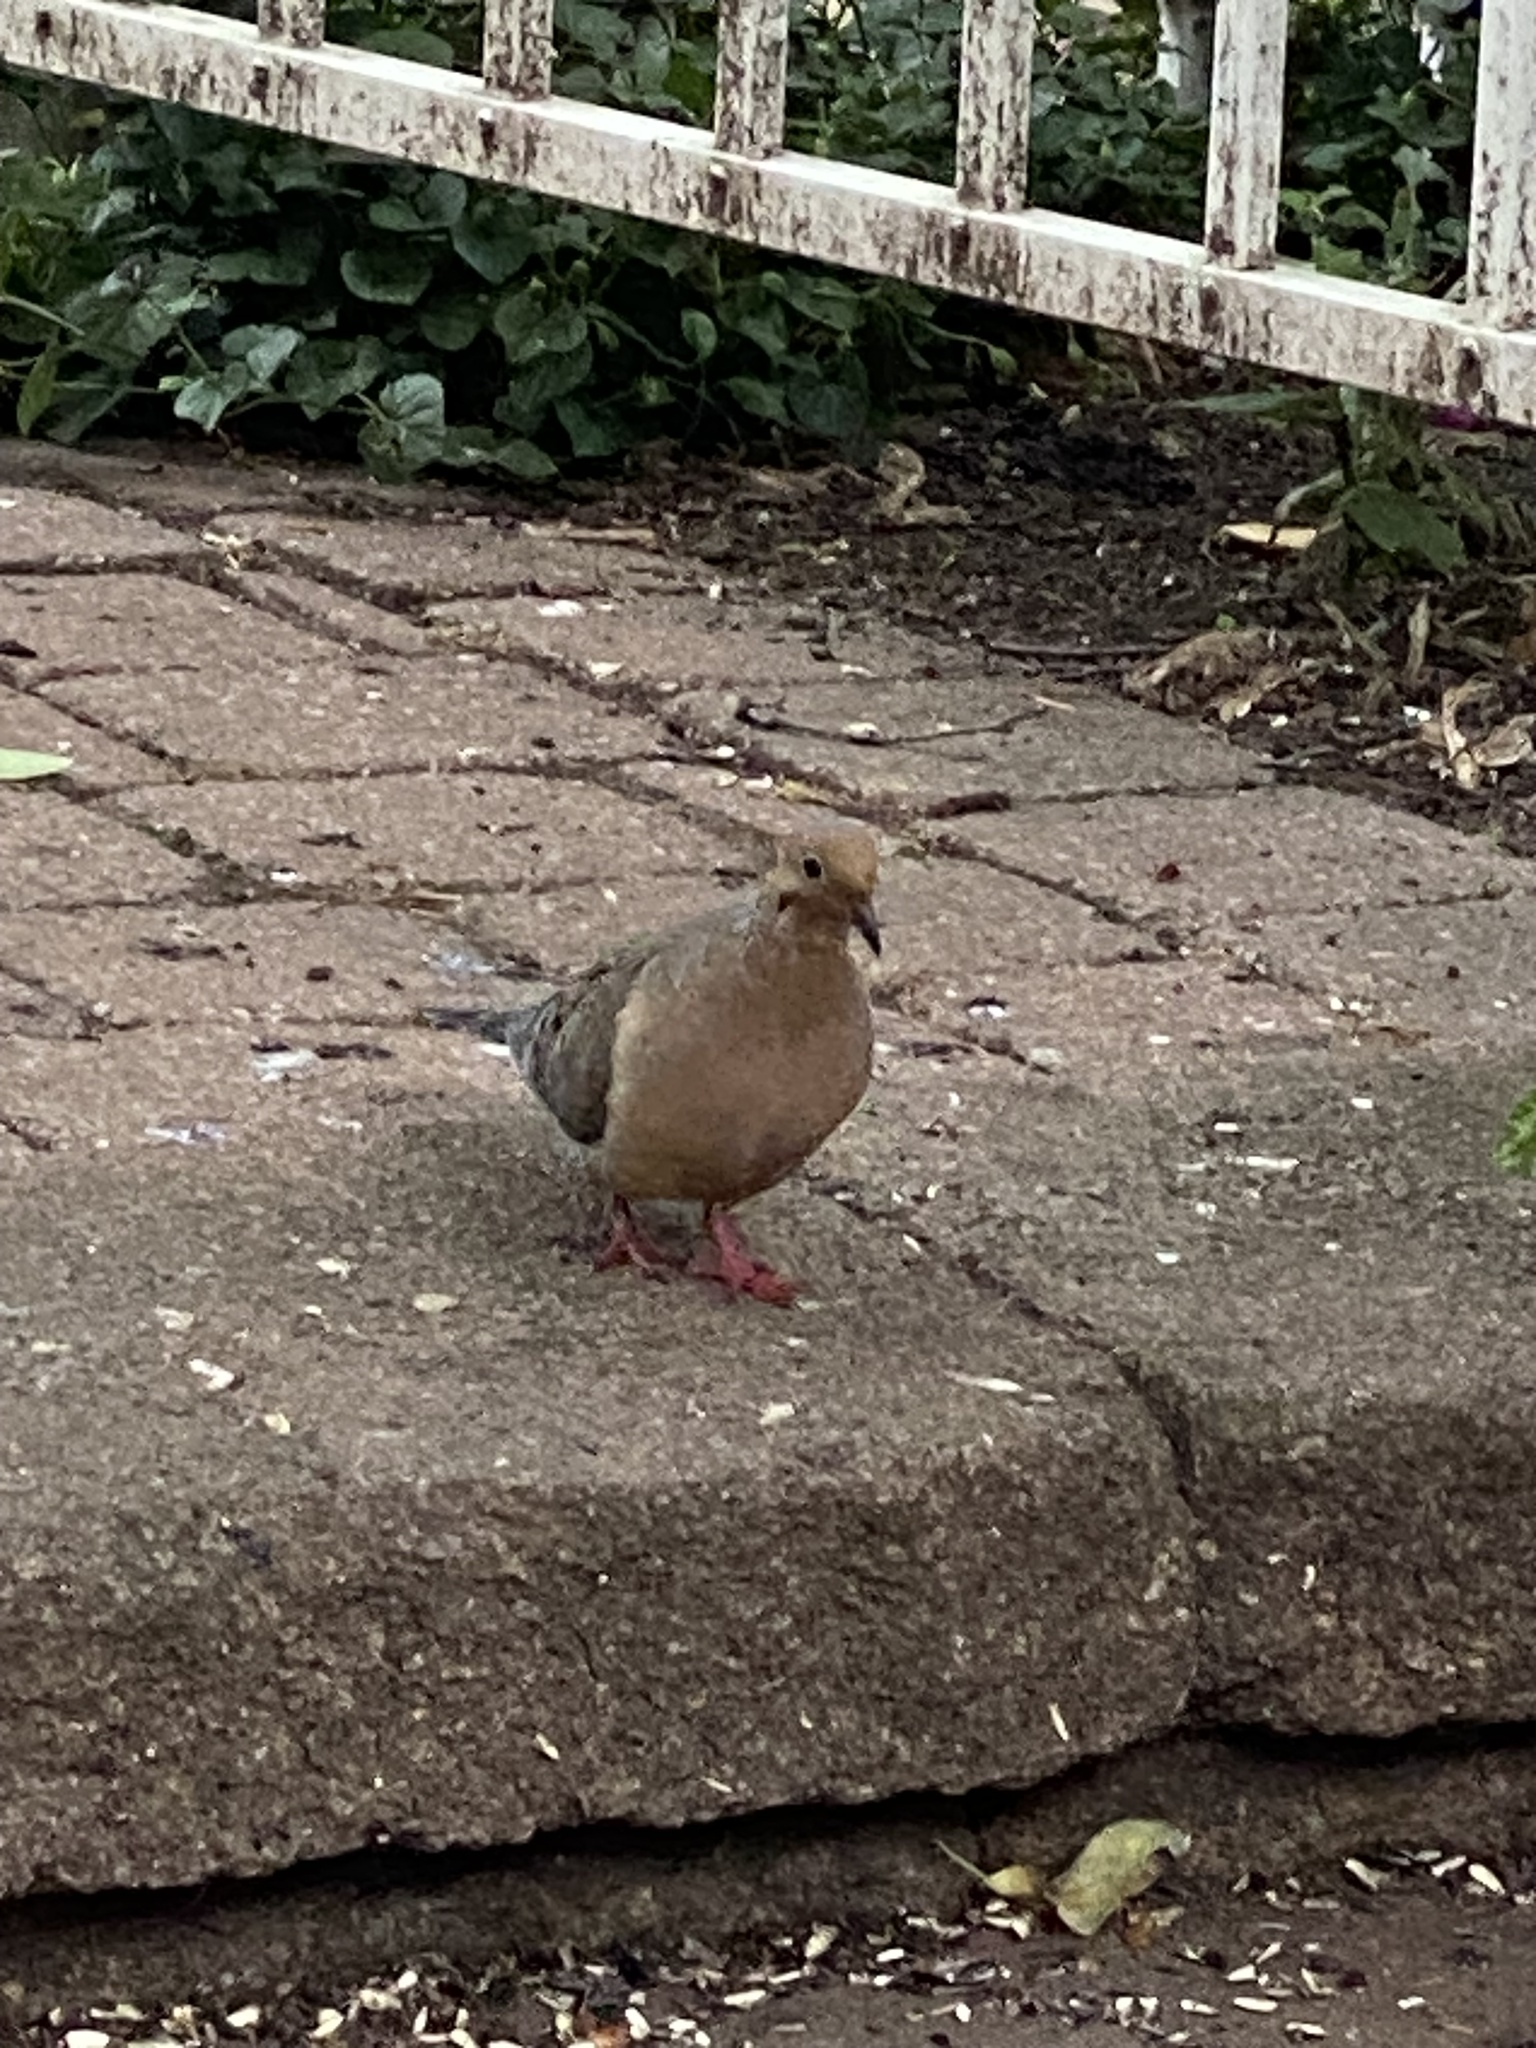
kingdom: Animalia
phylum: Chordata
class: Aves
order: Columbiformes
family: Columbidae
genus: Zenaida
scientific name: Zenaida macroura
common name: Mourning dove
